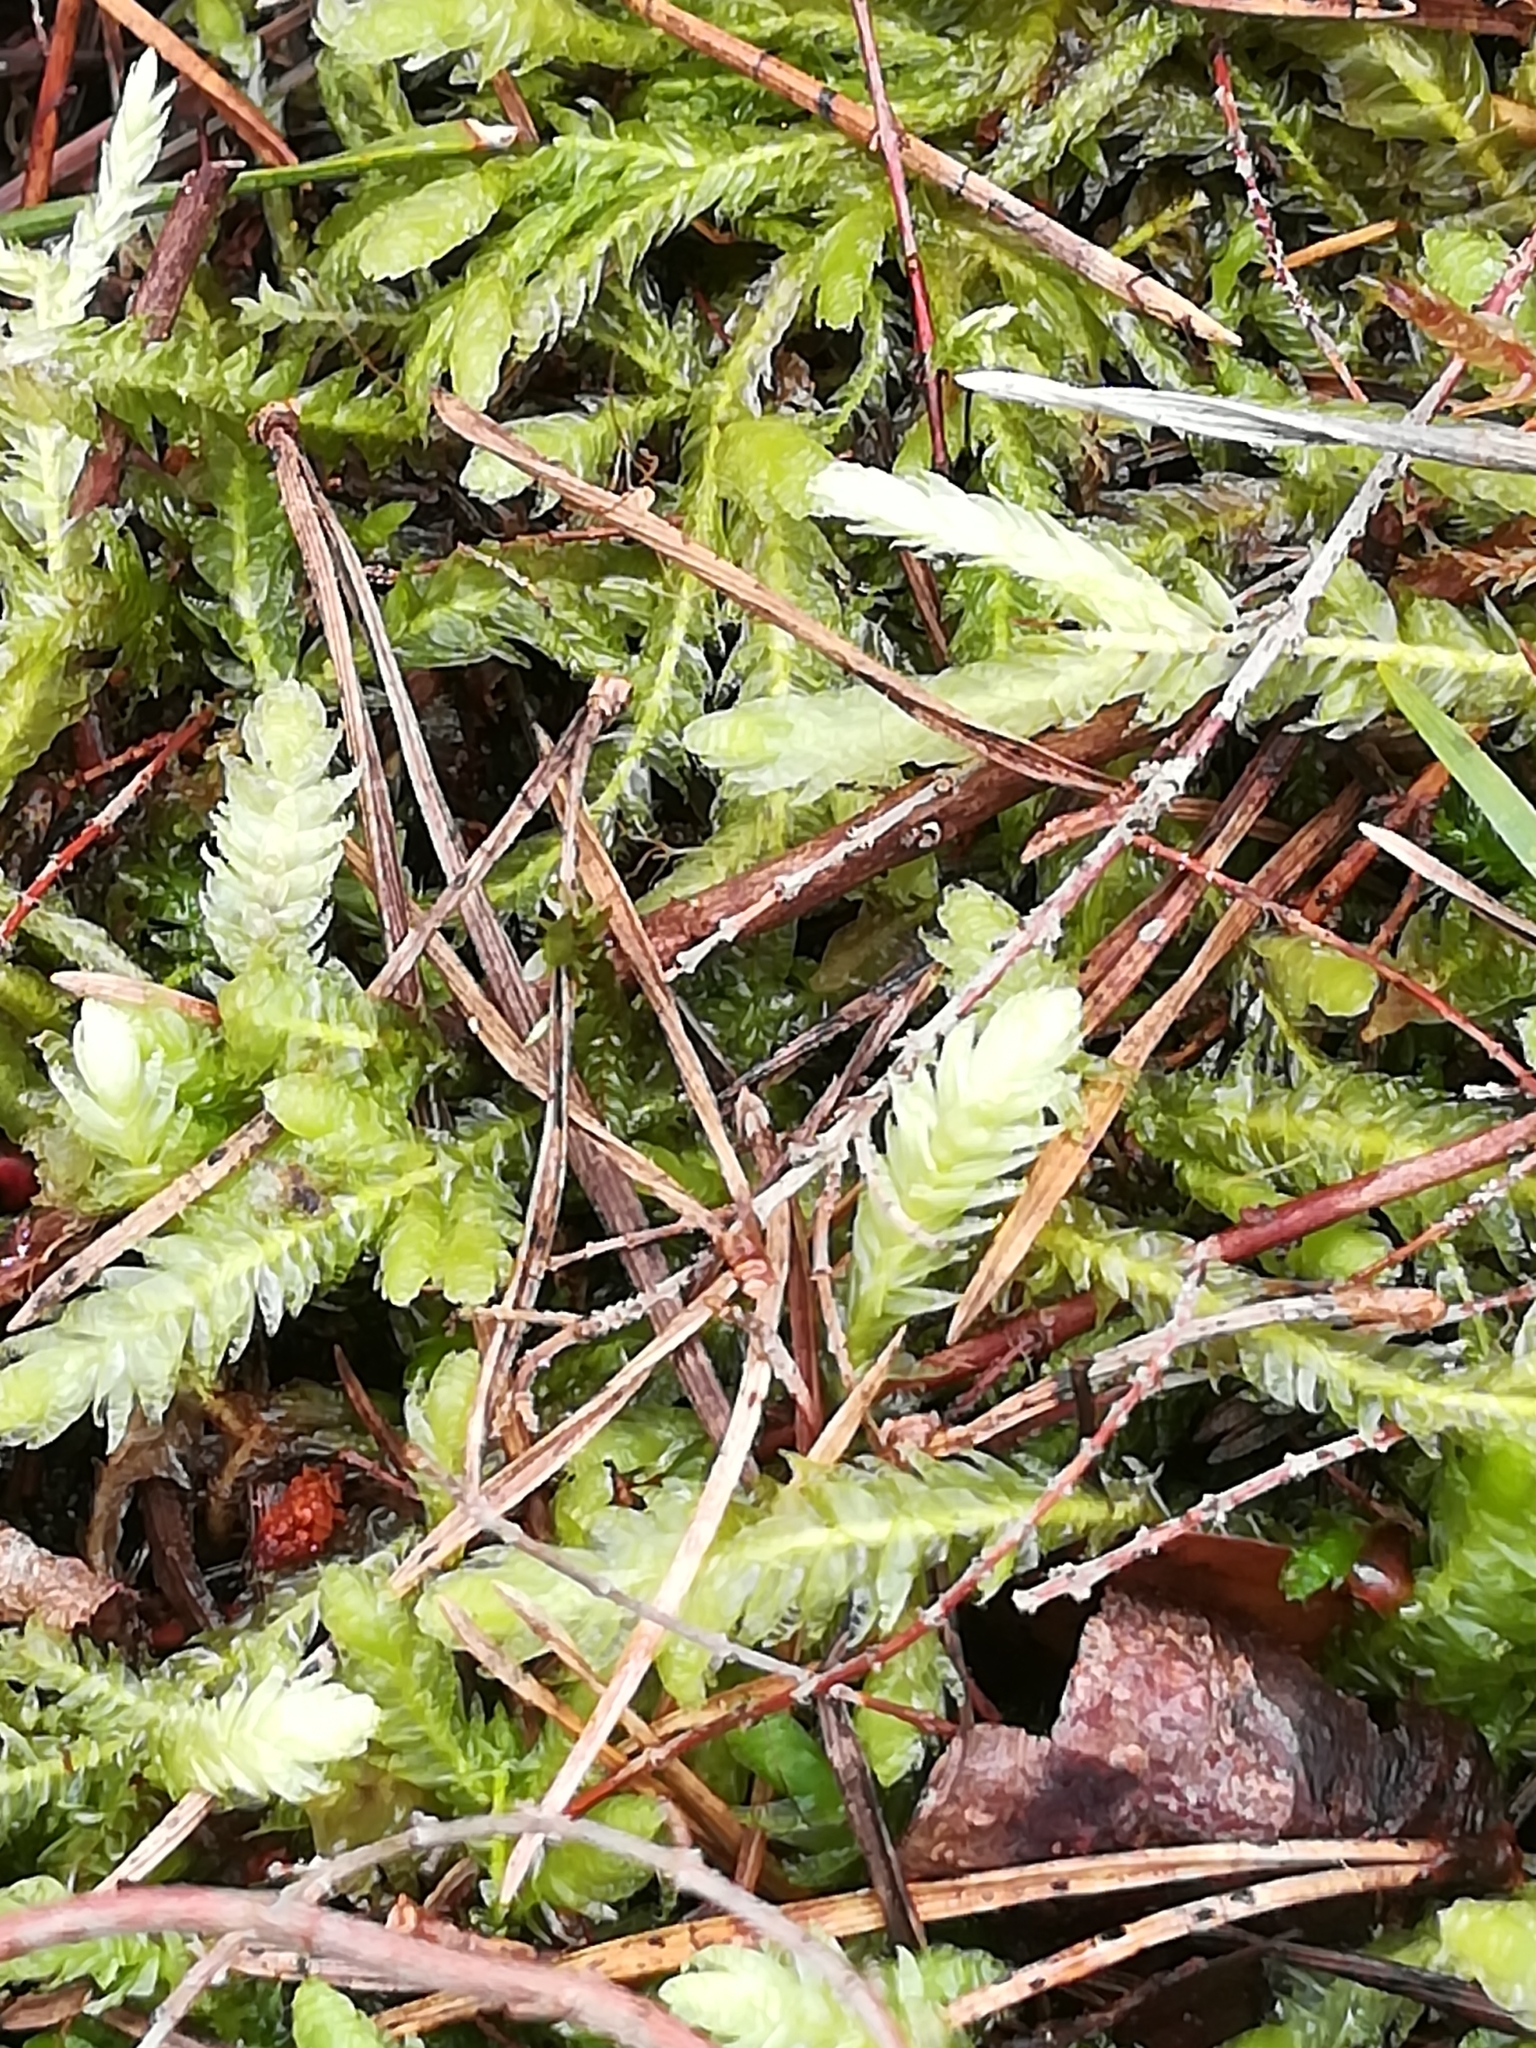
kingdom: Plantae
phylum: Bryophyta
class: Bryopsida
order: Hypnales
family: Plagiotheciaceae
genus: Plagiothecium
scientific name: Plagiothecium undulatum
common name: Waved silk-moss
